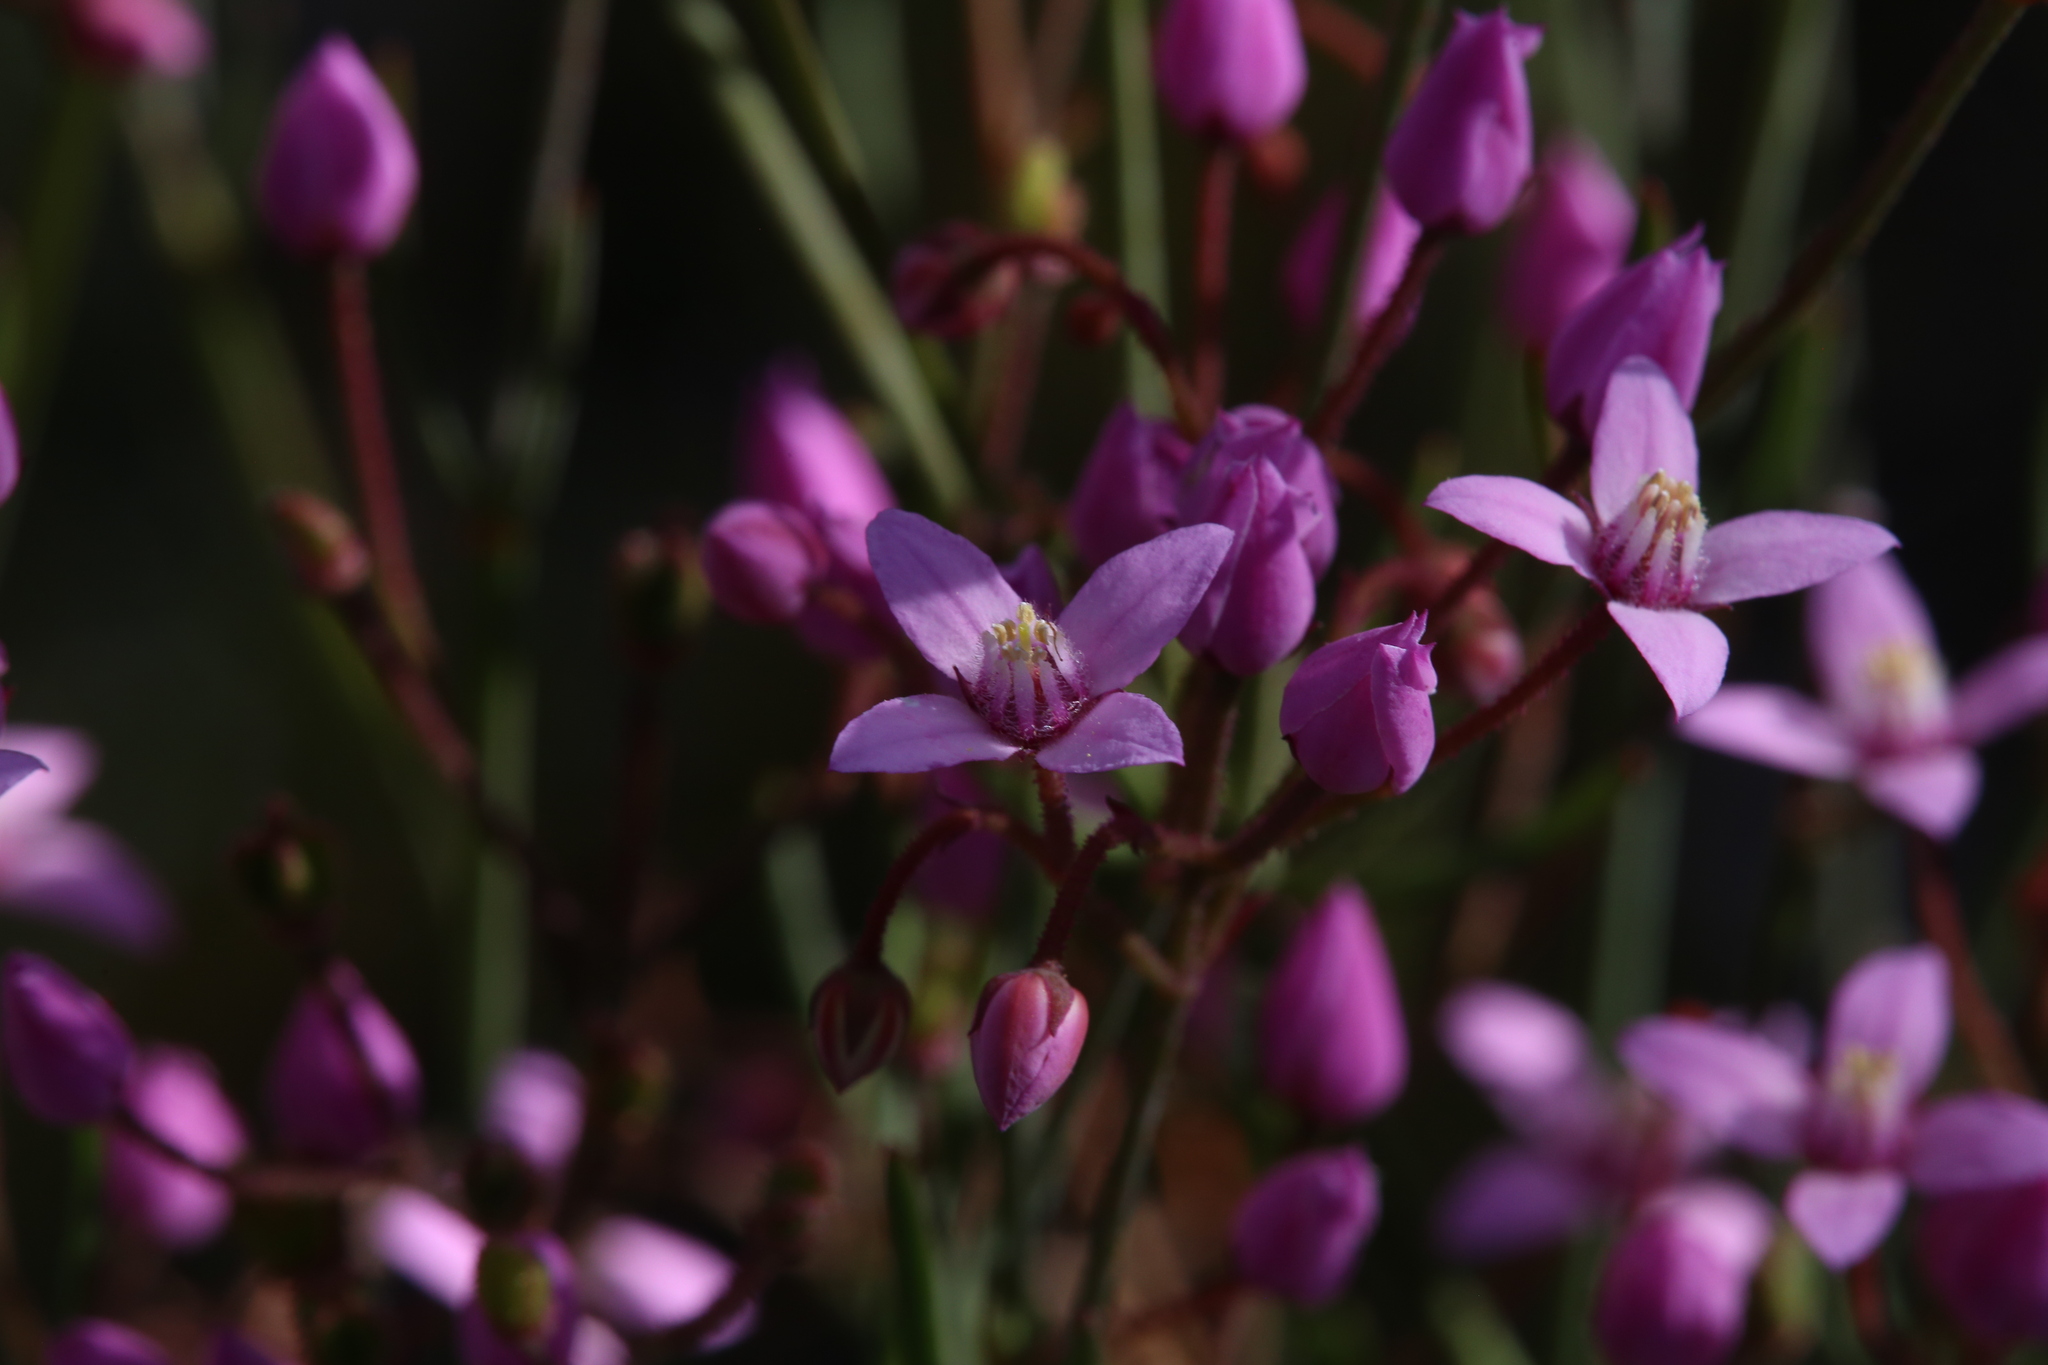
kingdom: Plantae
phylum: Tracheophyta
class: Magnoliopsida
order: Sapindales
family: Rutaceae
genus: Boronia
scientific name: Boronia dichotoma
